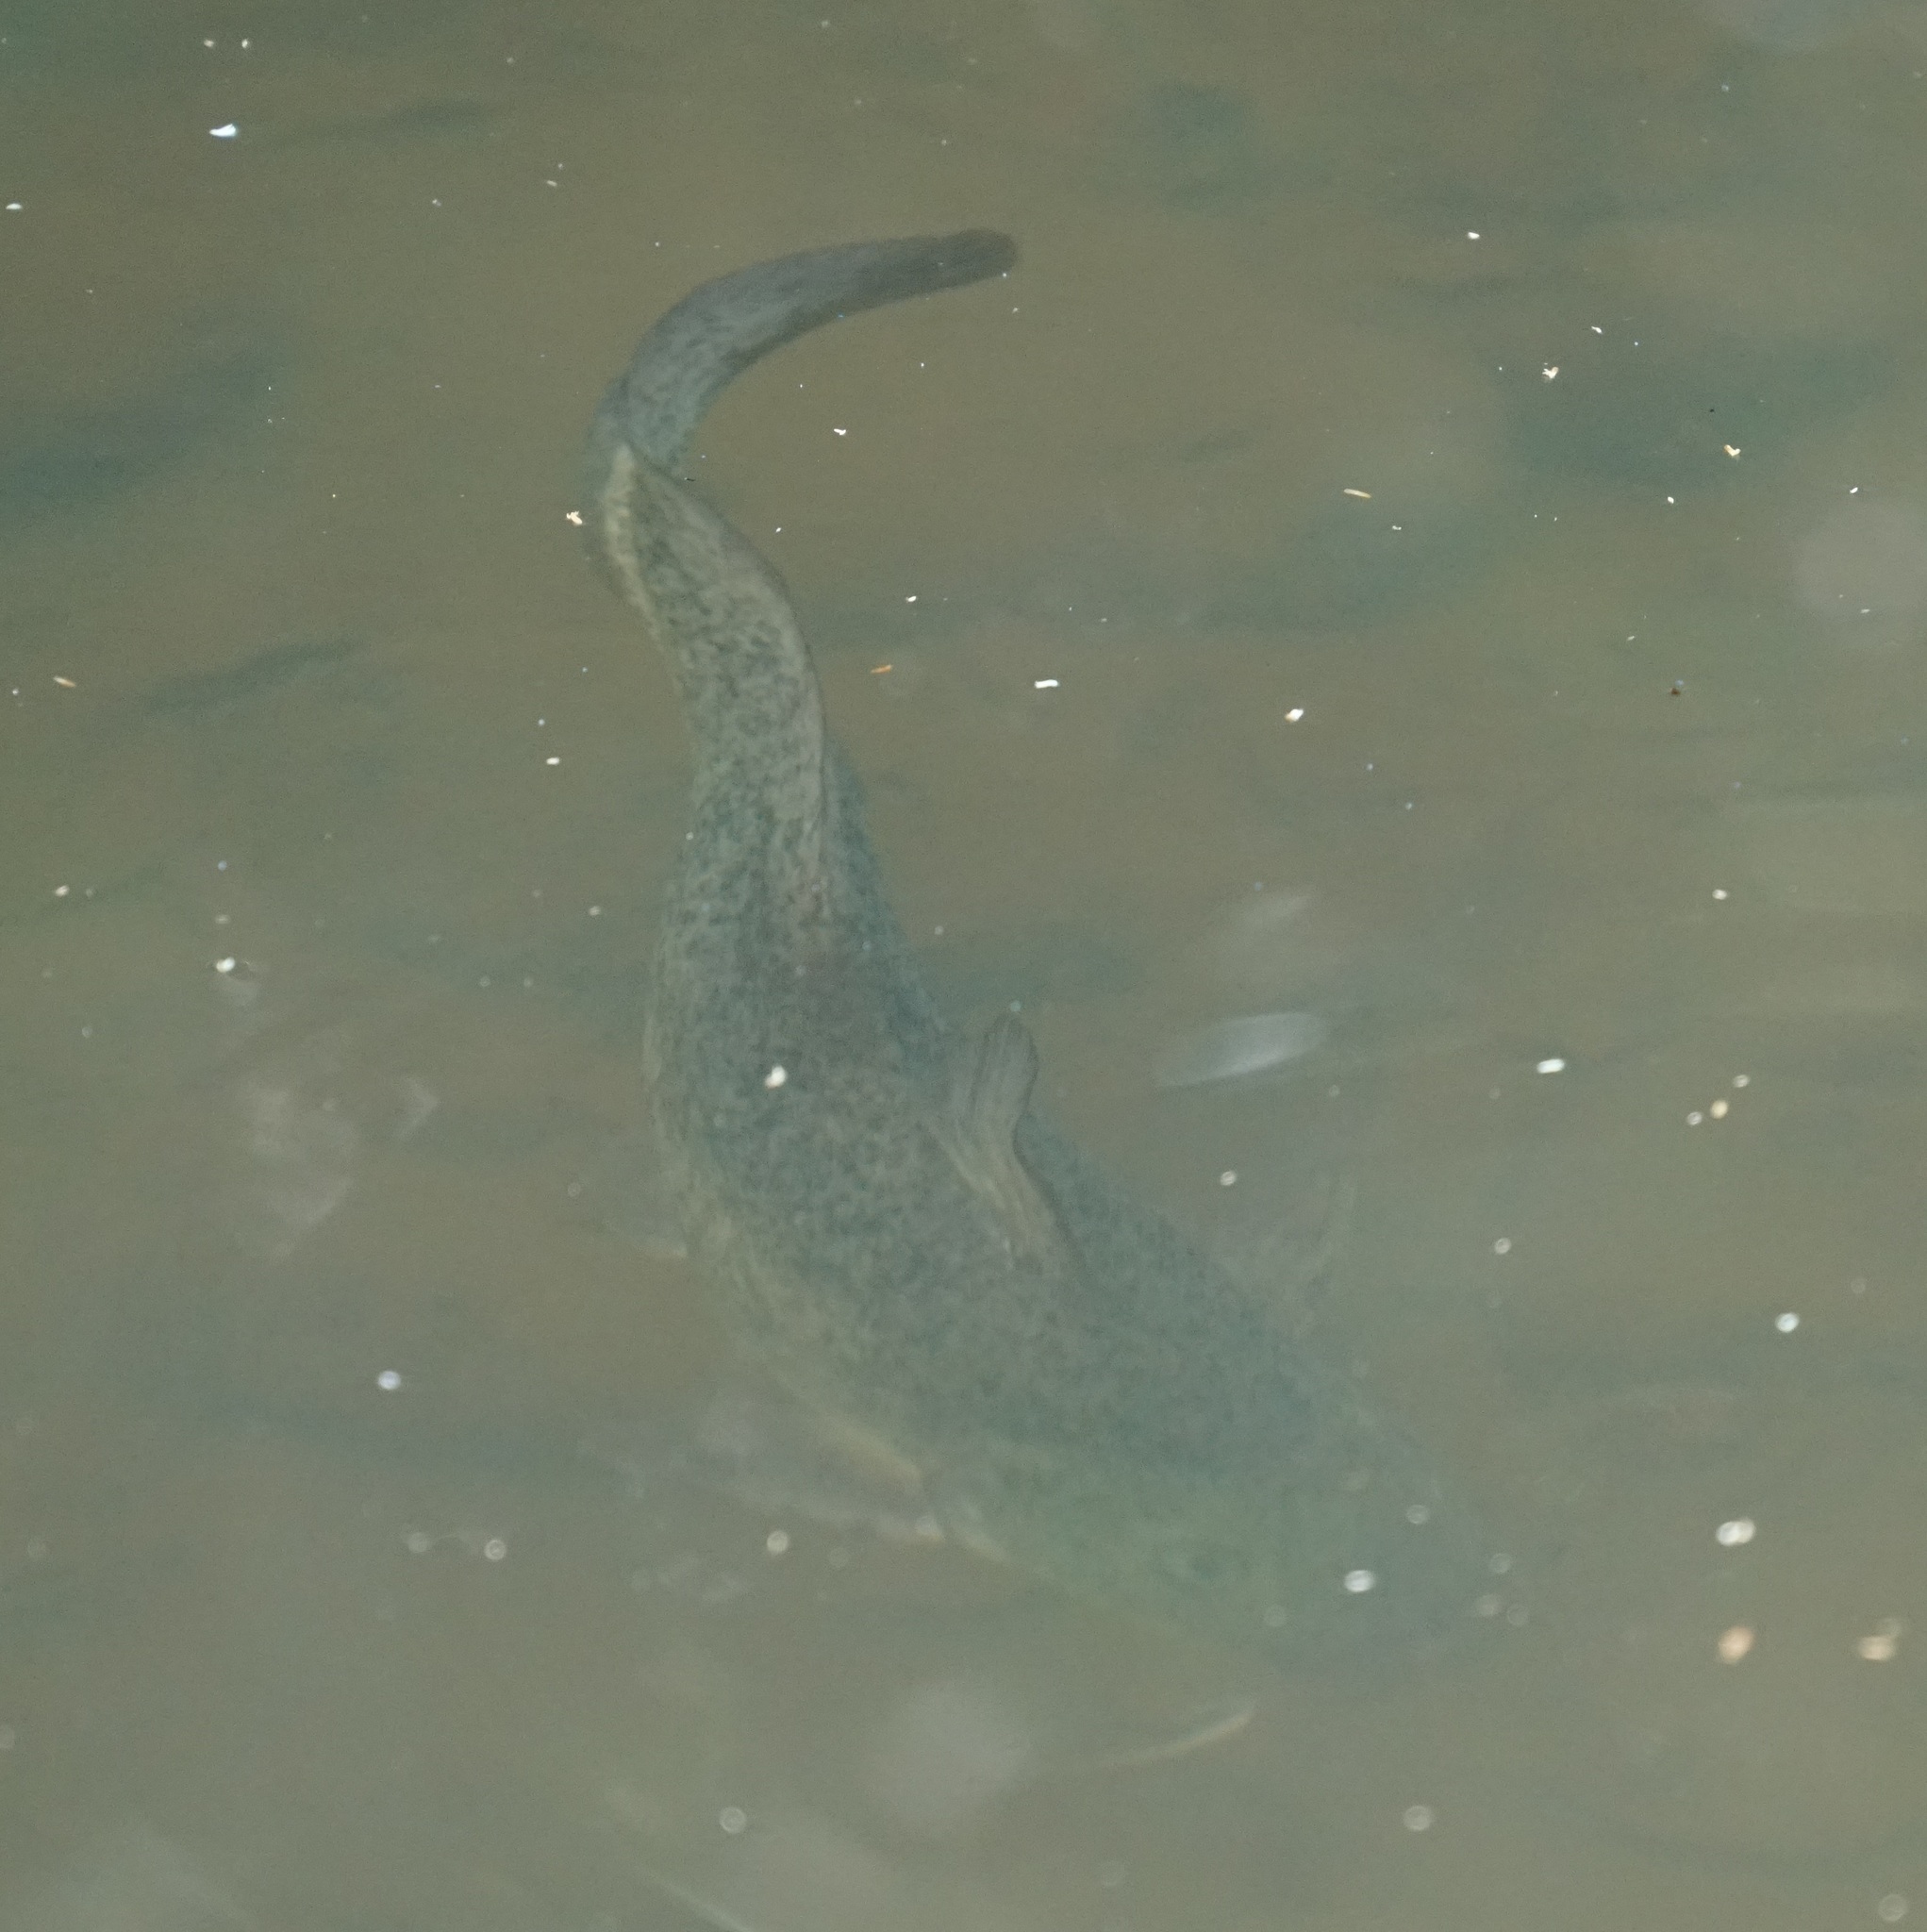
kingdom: Animalia
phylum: Chordata
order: Siluriformes
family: Plotosidae
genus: Tandanus
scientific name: Tandanus tropicanus
